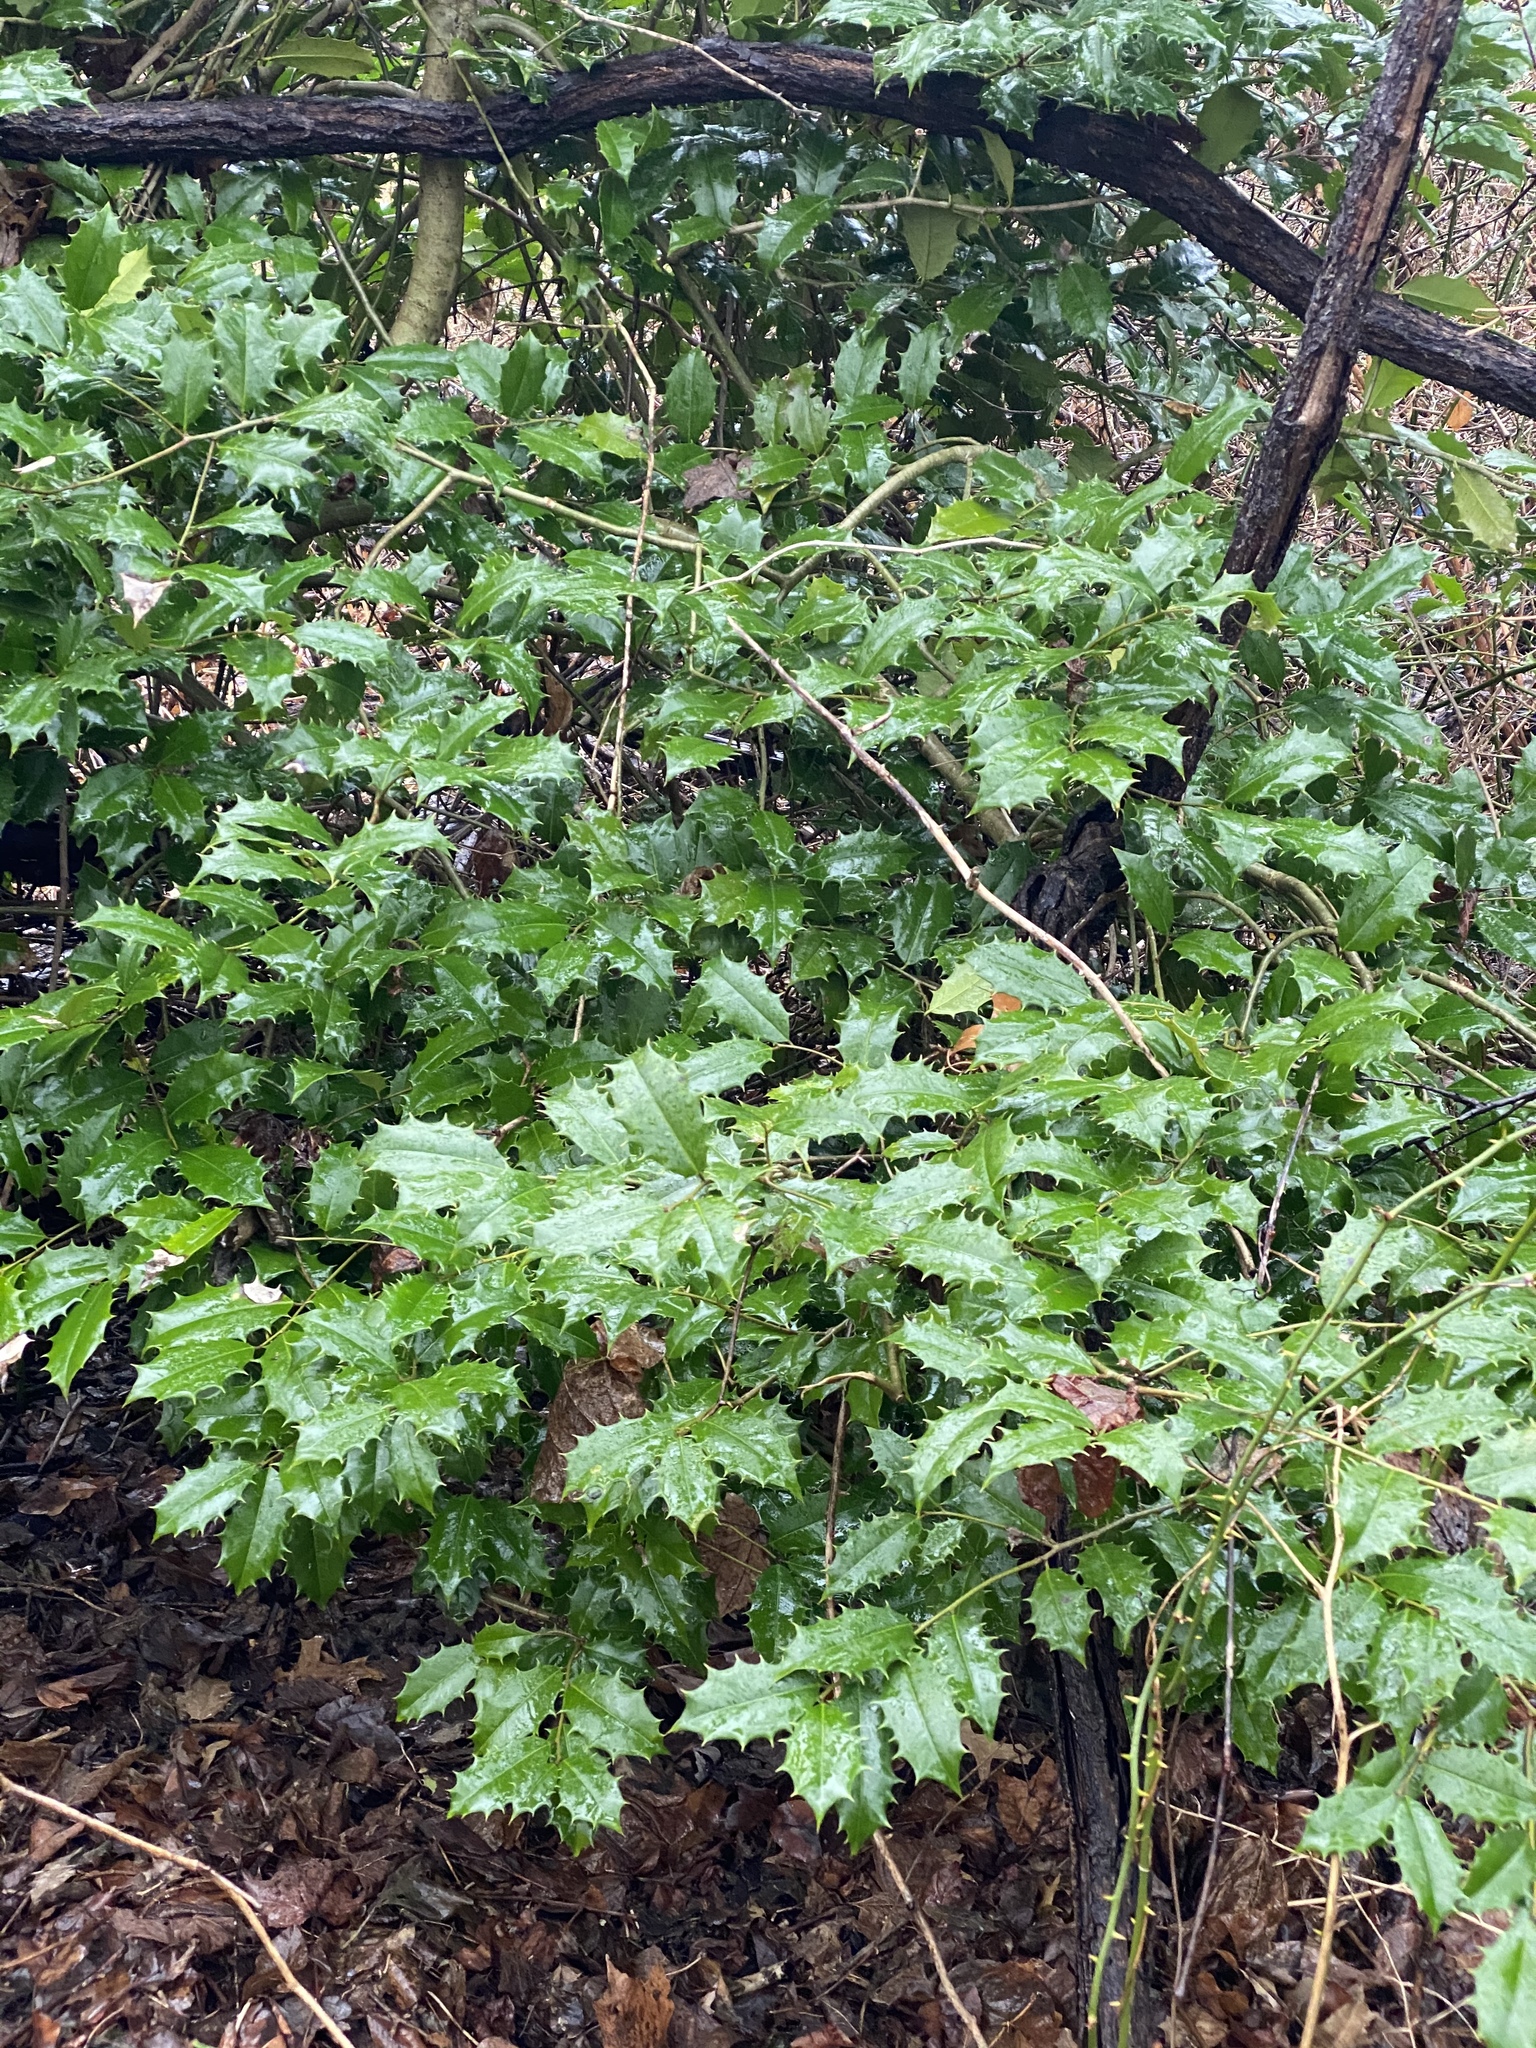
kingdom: Plantae
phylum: Tracheophyta
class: Magnoliopsida
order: Aquifoliales
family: Aquifoliaceae
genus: Ilex
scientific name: Ilex opaca
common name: American holly
